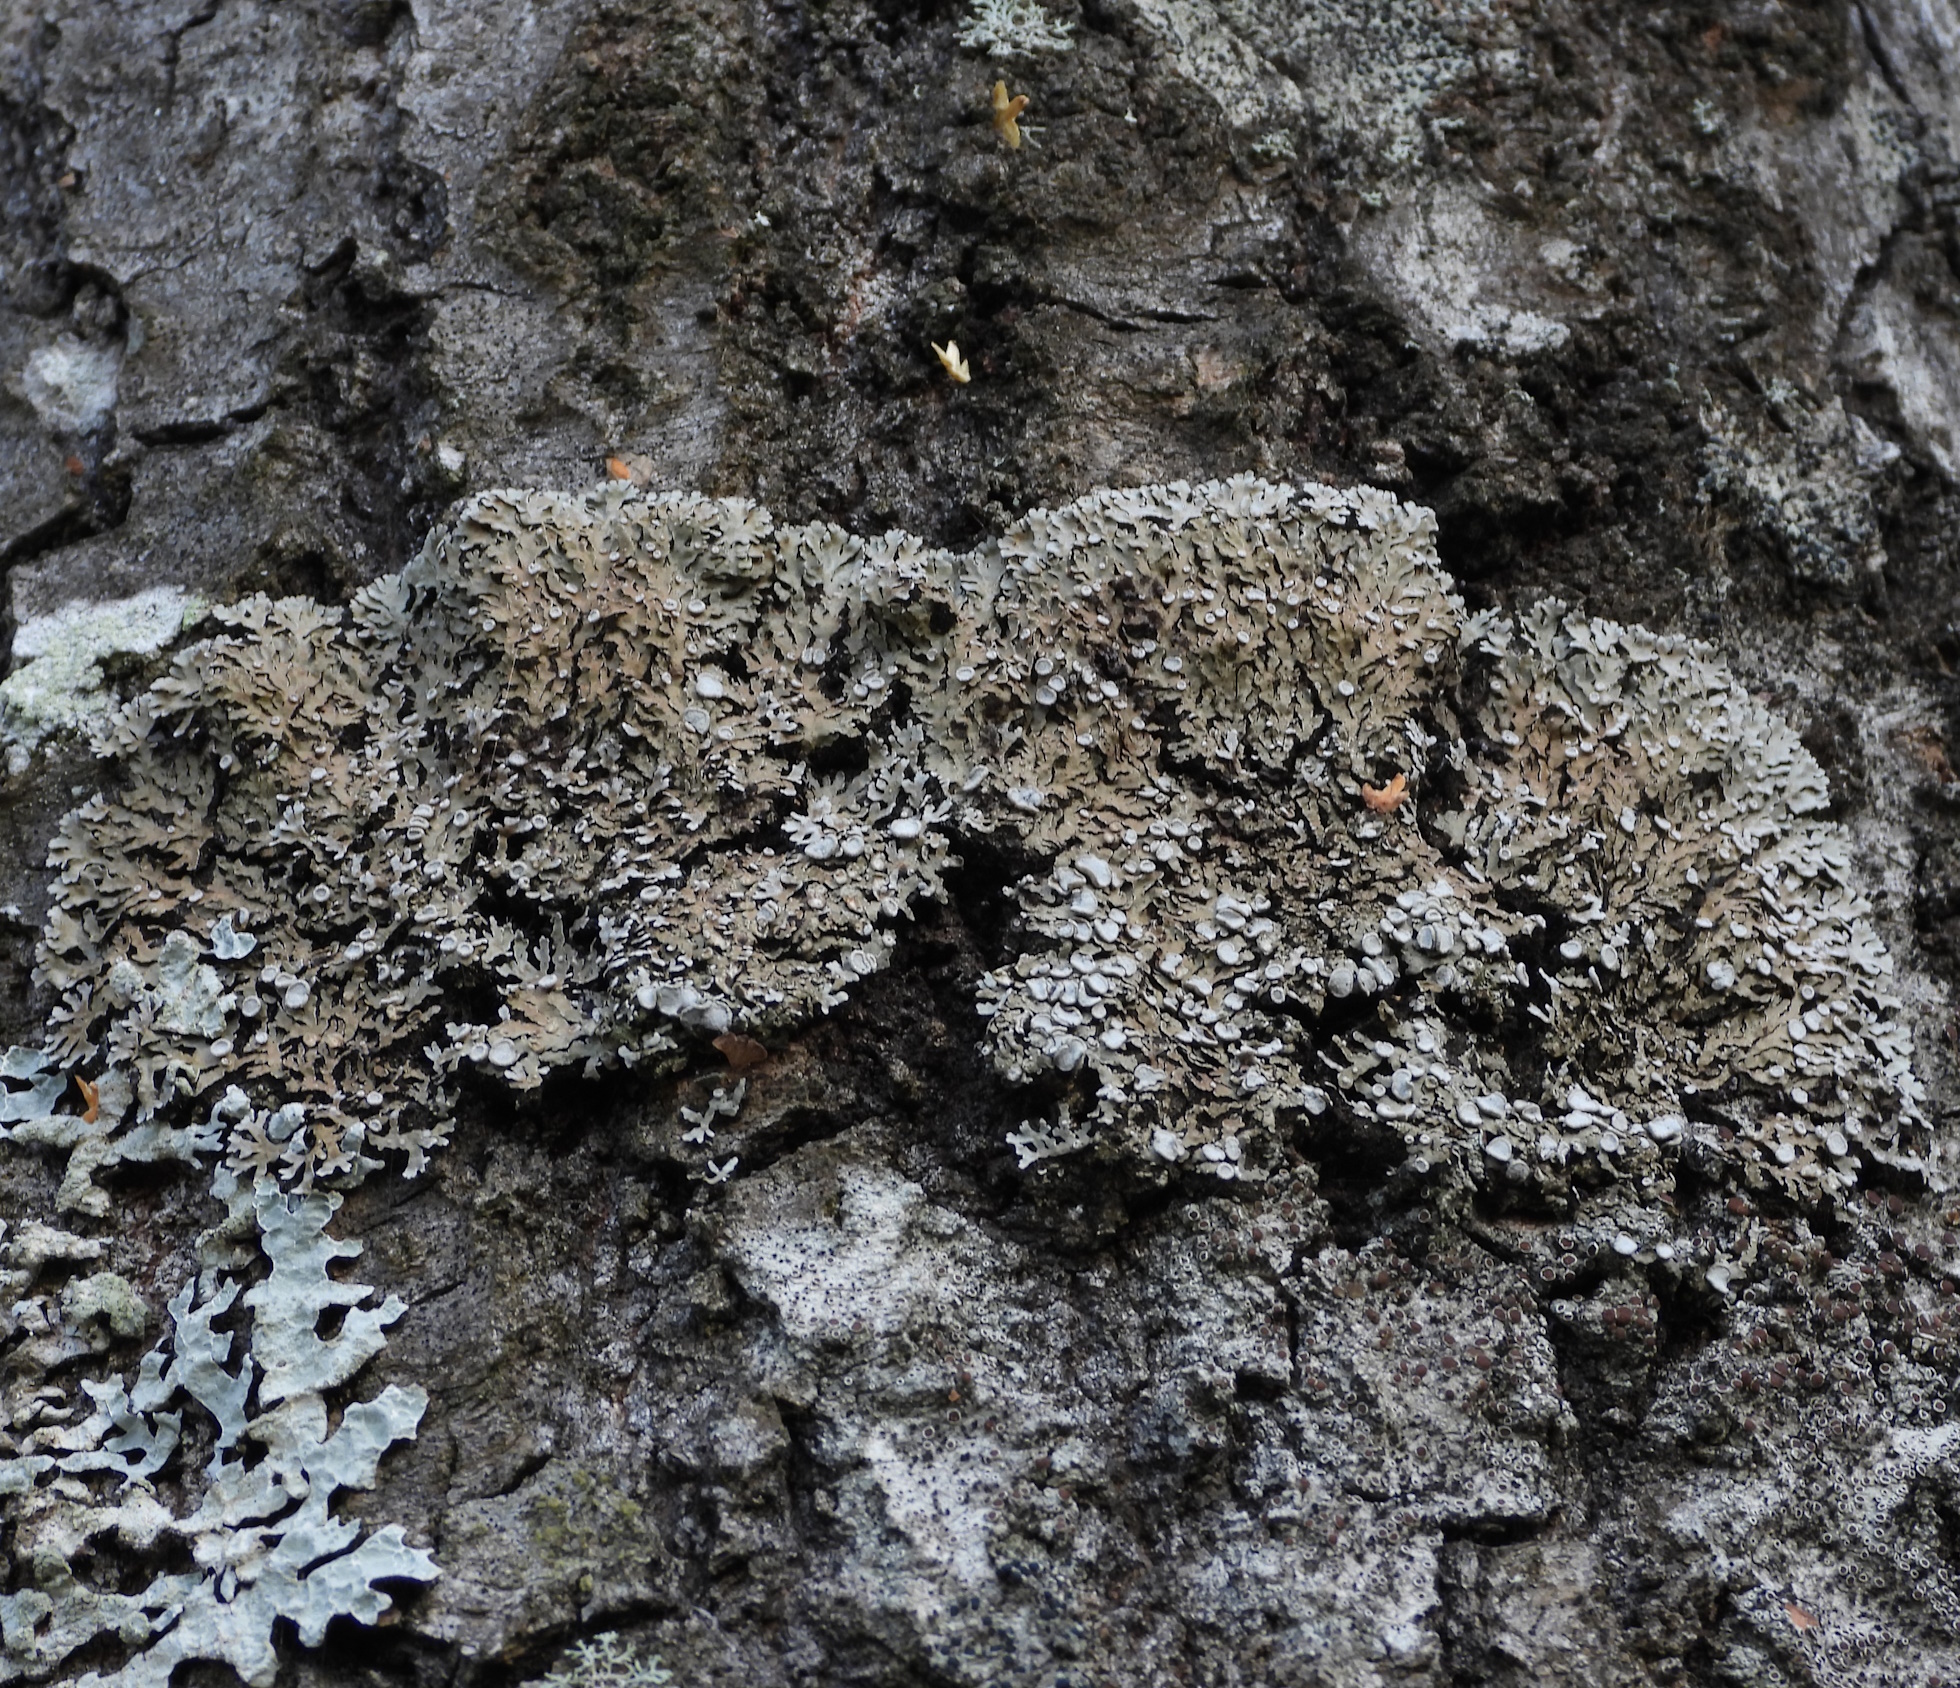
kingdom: Fungi
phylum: Ascomycota
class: Lecanoromycetes
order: Caliciales
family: Physciaceae
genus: Physconia
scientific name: Physconia distorta
